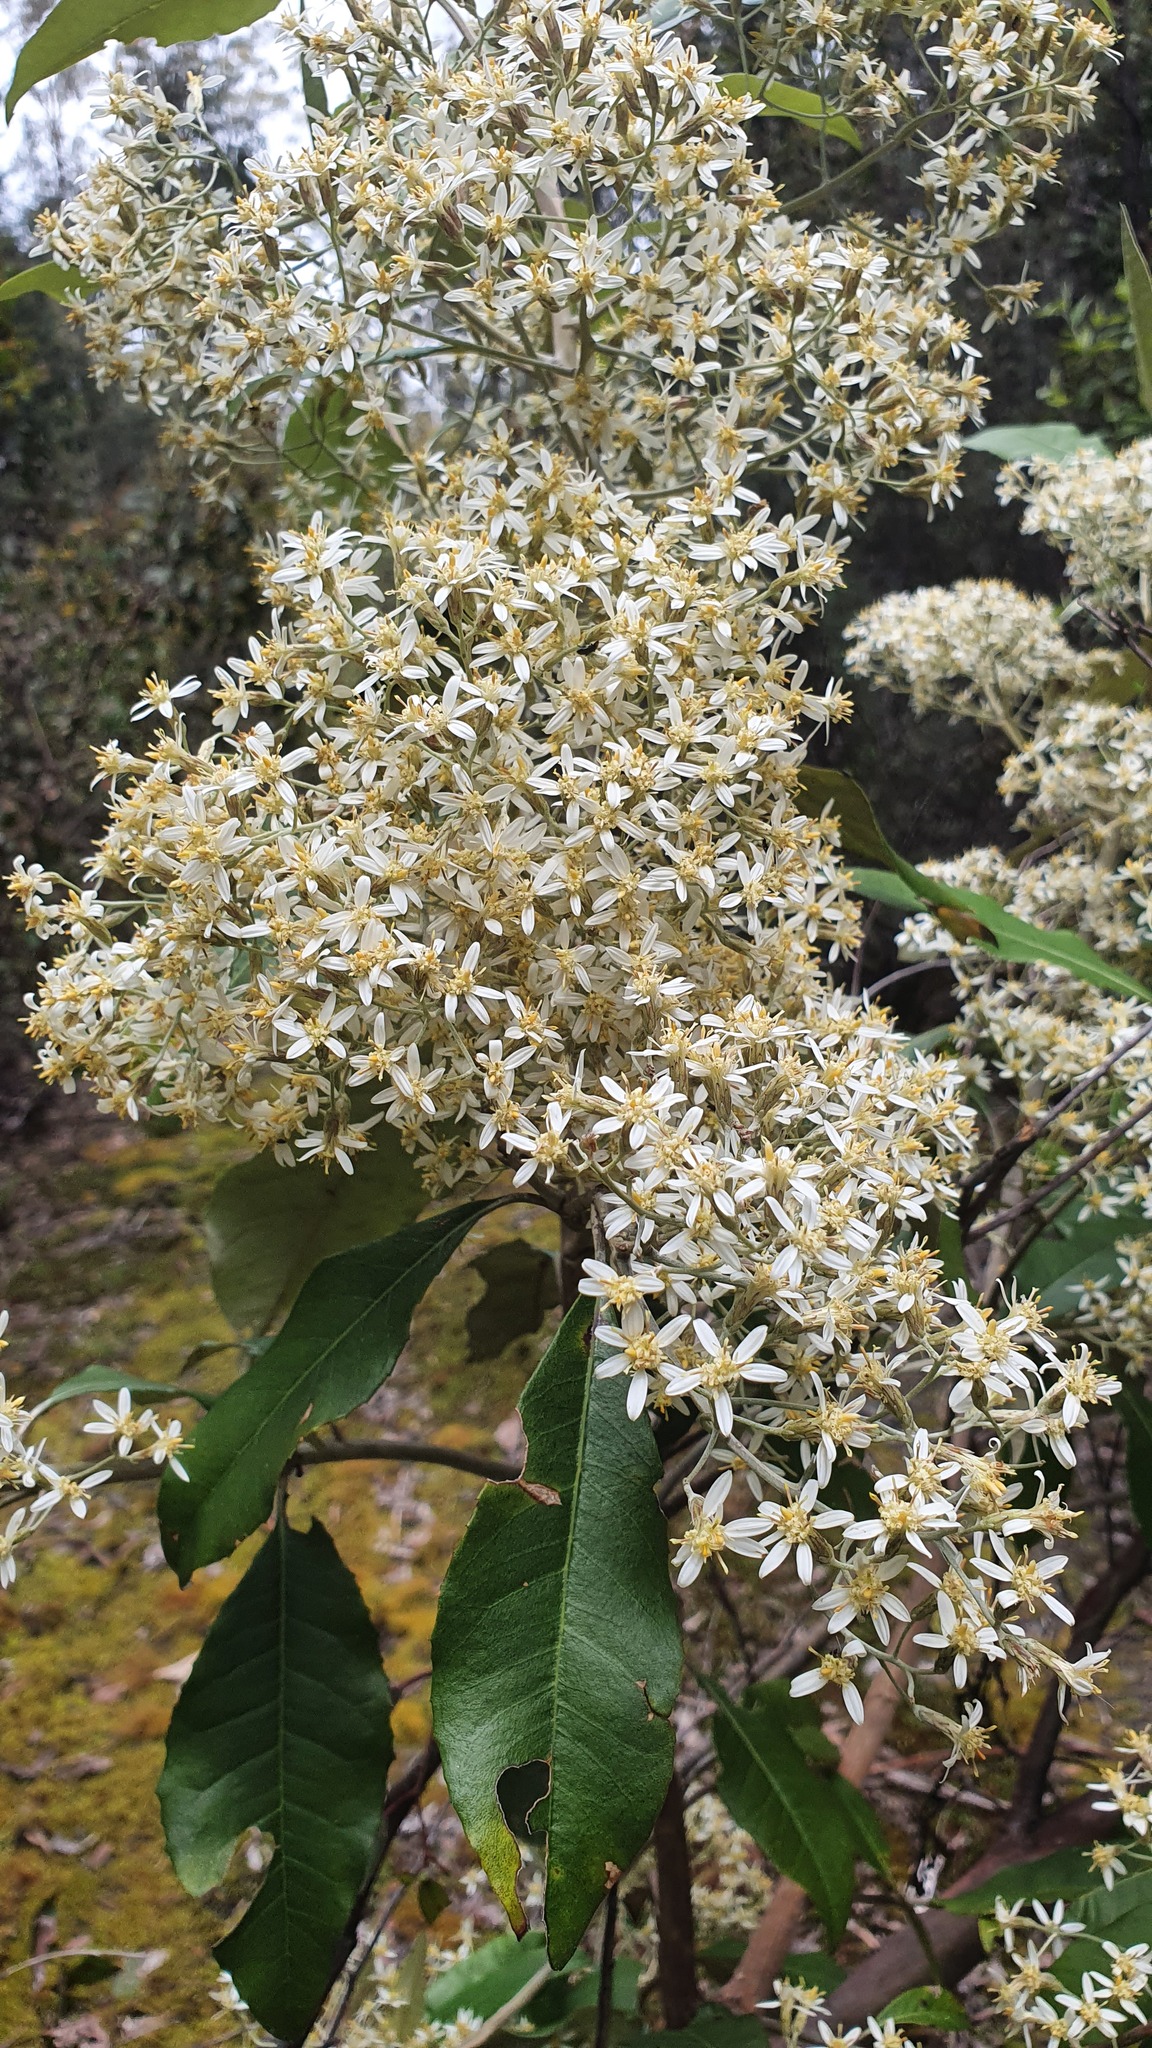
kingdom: Plantae
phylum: Tracheophyta
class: Magnoliopsida
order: Asterales
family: Asteraceae
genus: Olearia
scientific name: Olearia argophylla
